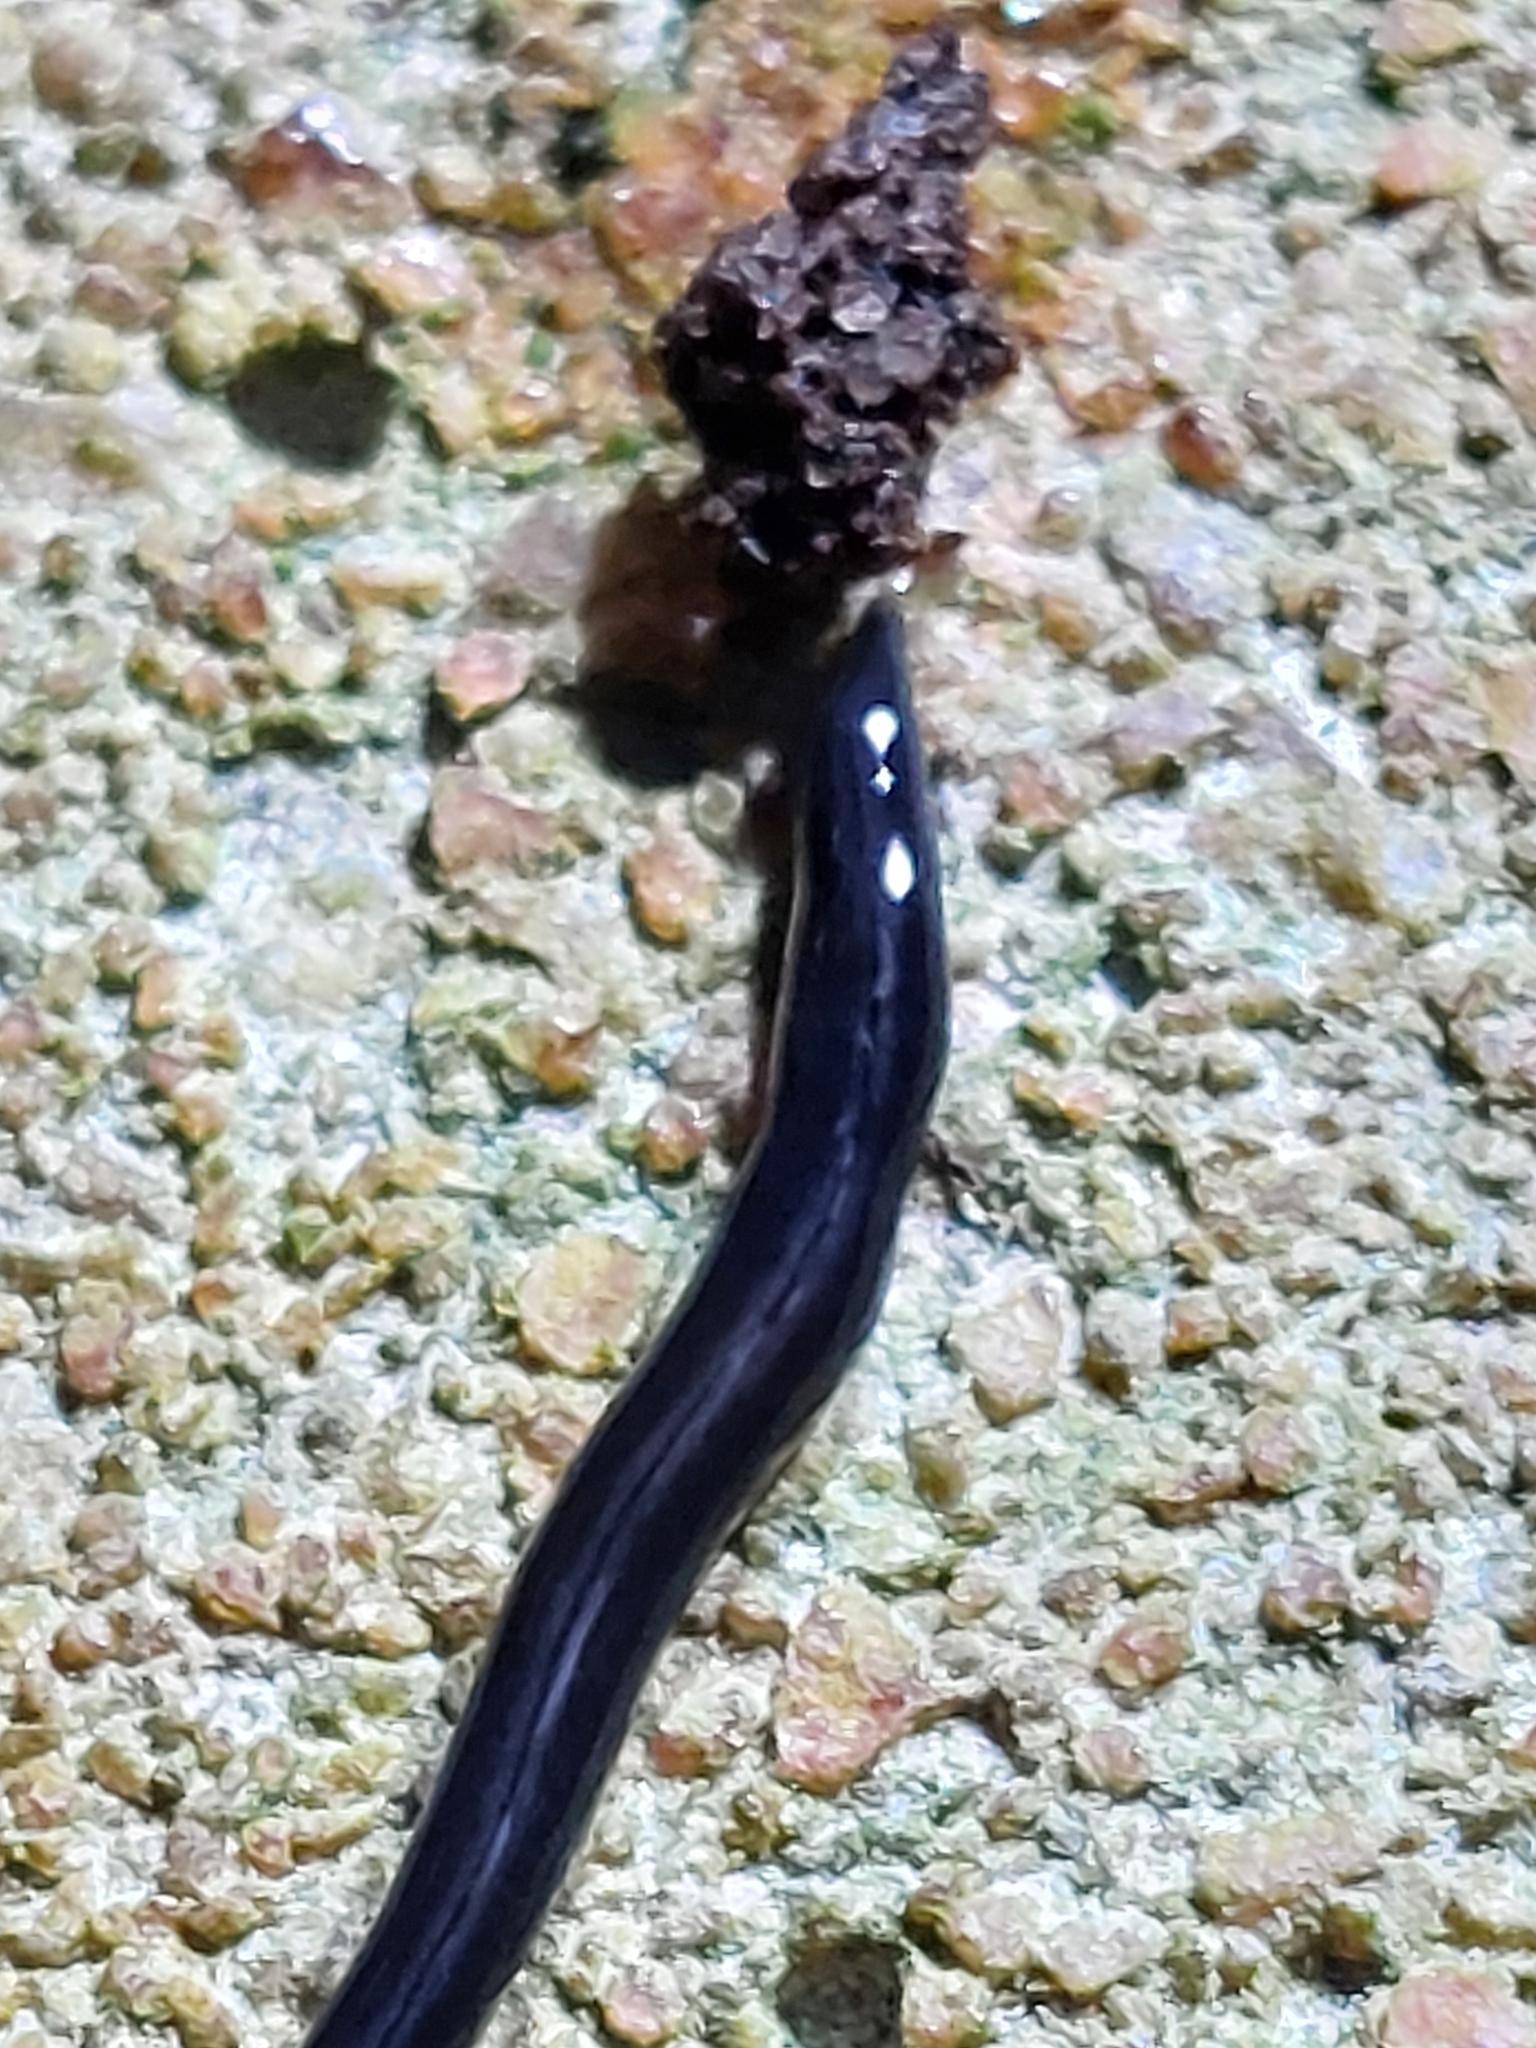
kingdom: Animalia
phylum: Platyhelminthes
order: Tricladida
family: Geoplanidae
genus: Parakontikia
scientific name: Parakontikia ventrolineata
